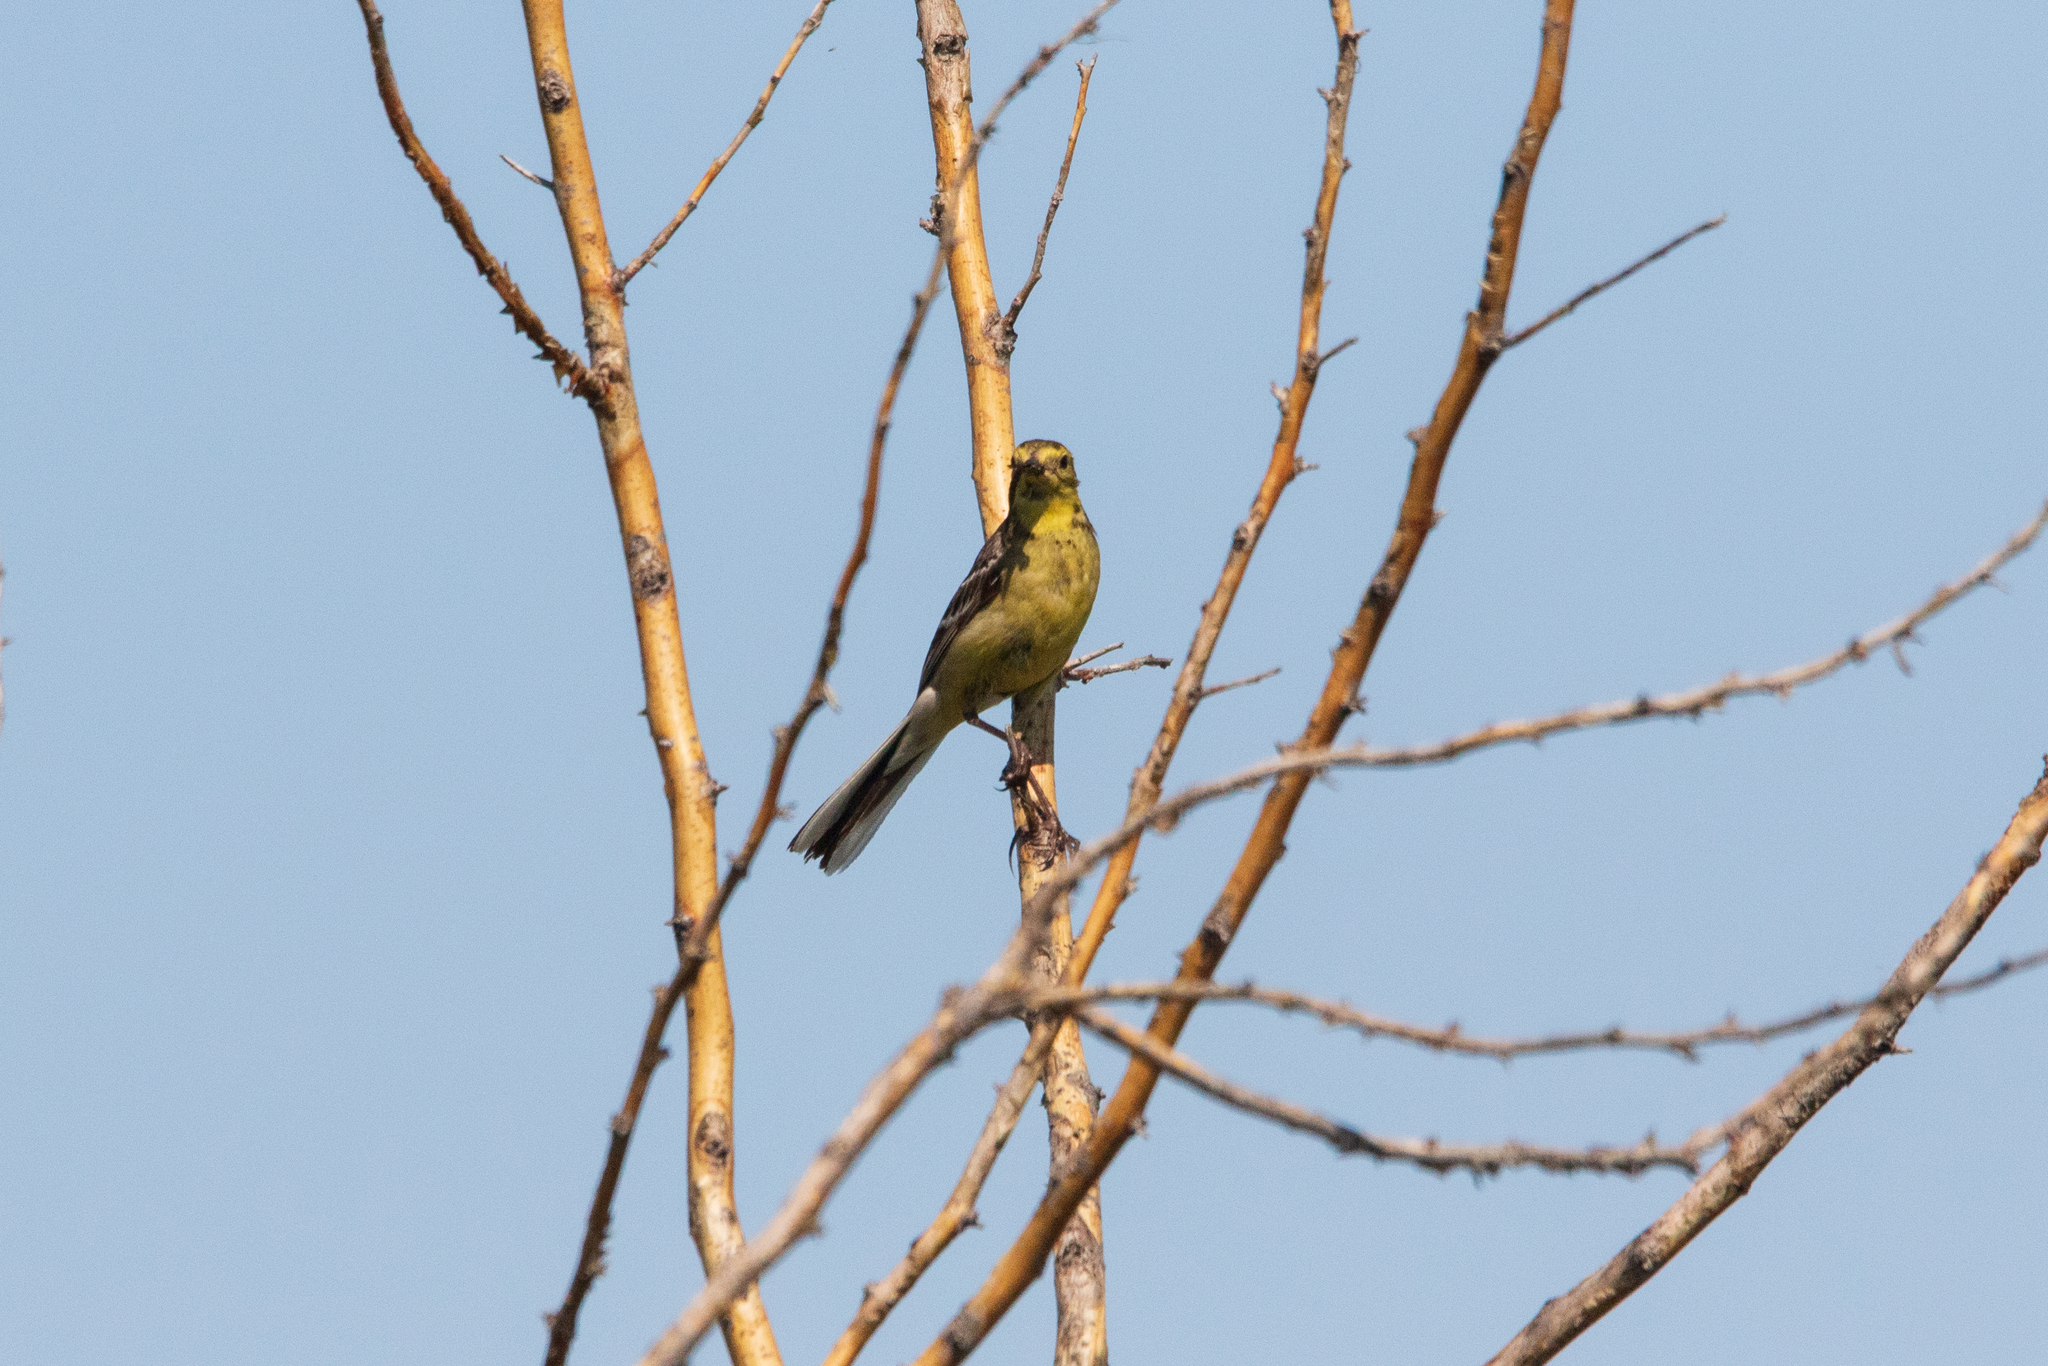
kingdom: Animalia
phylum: Chordata
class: Aves
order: Passeriformes
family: Motacillidae
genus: Motacilla
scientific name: Motacilla citreola
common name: Citrine wagtail
